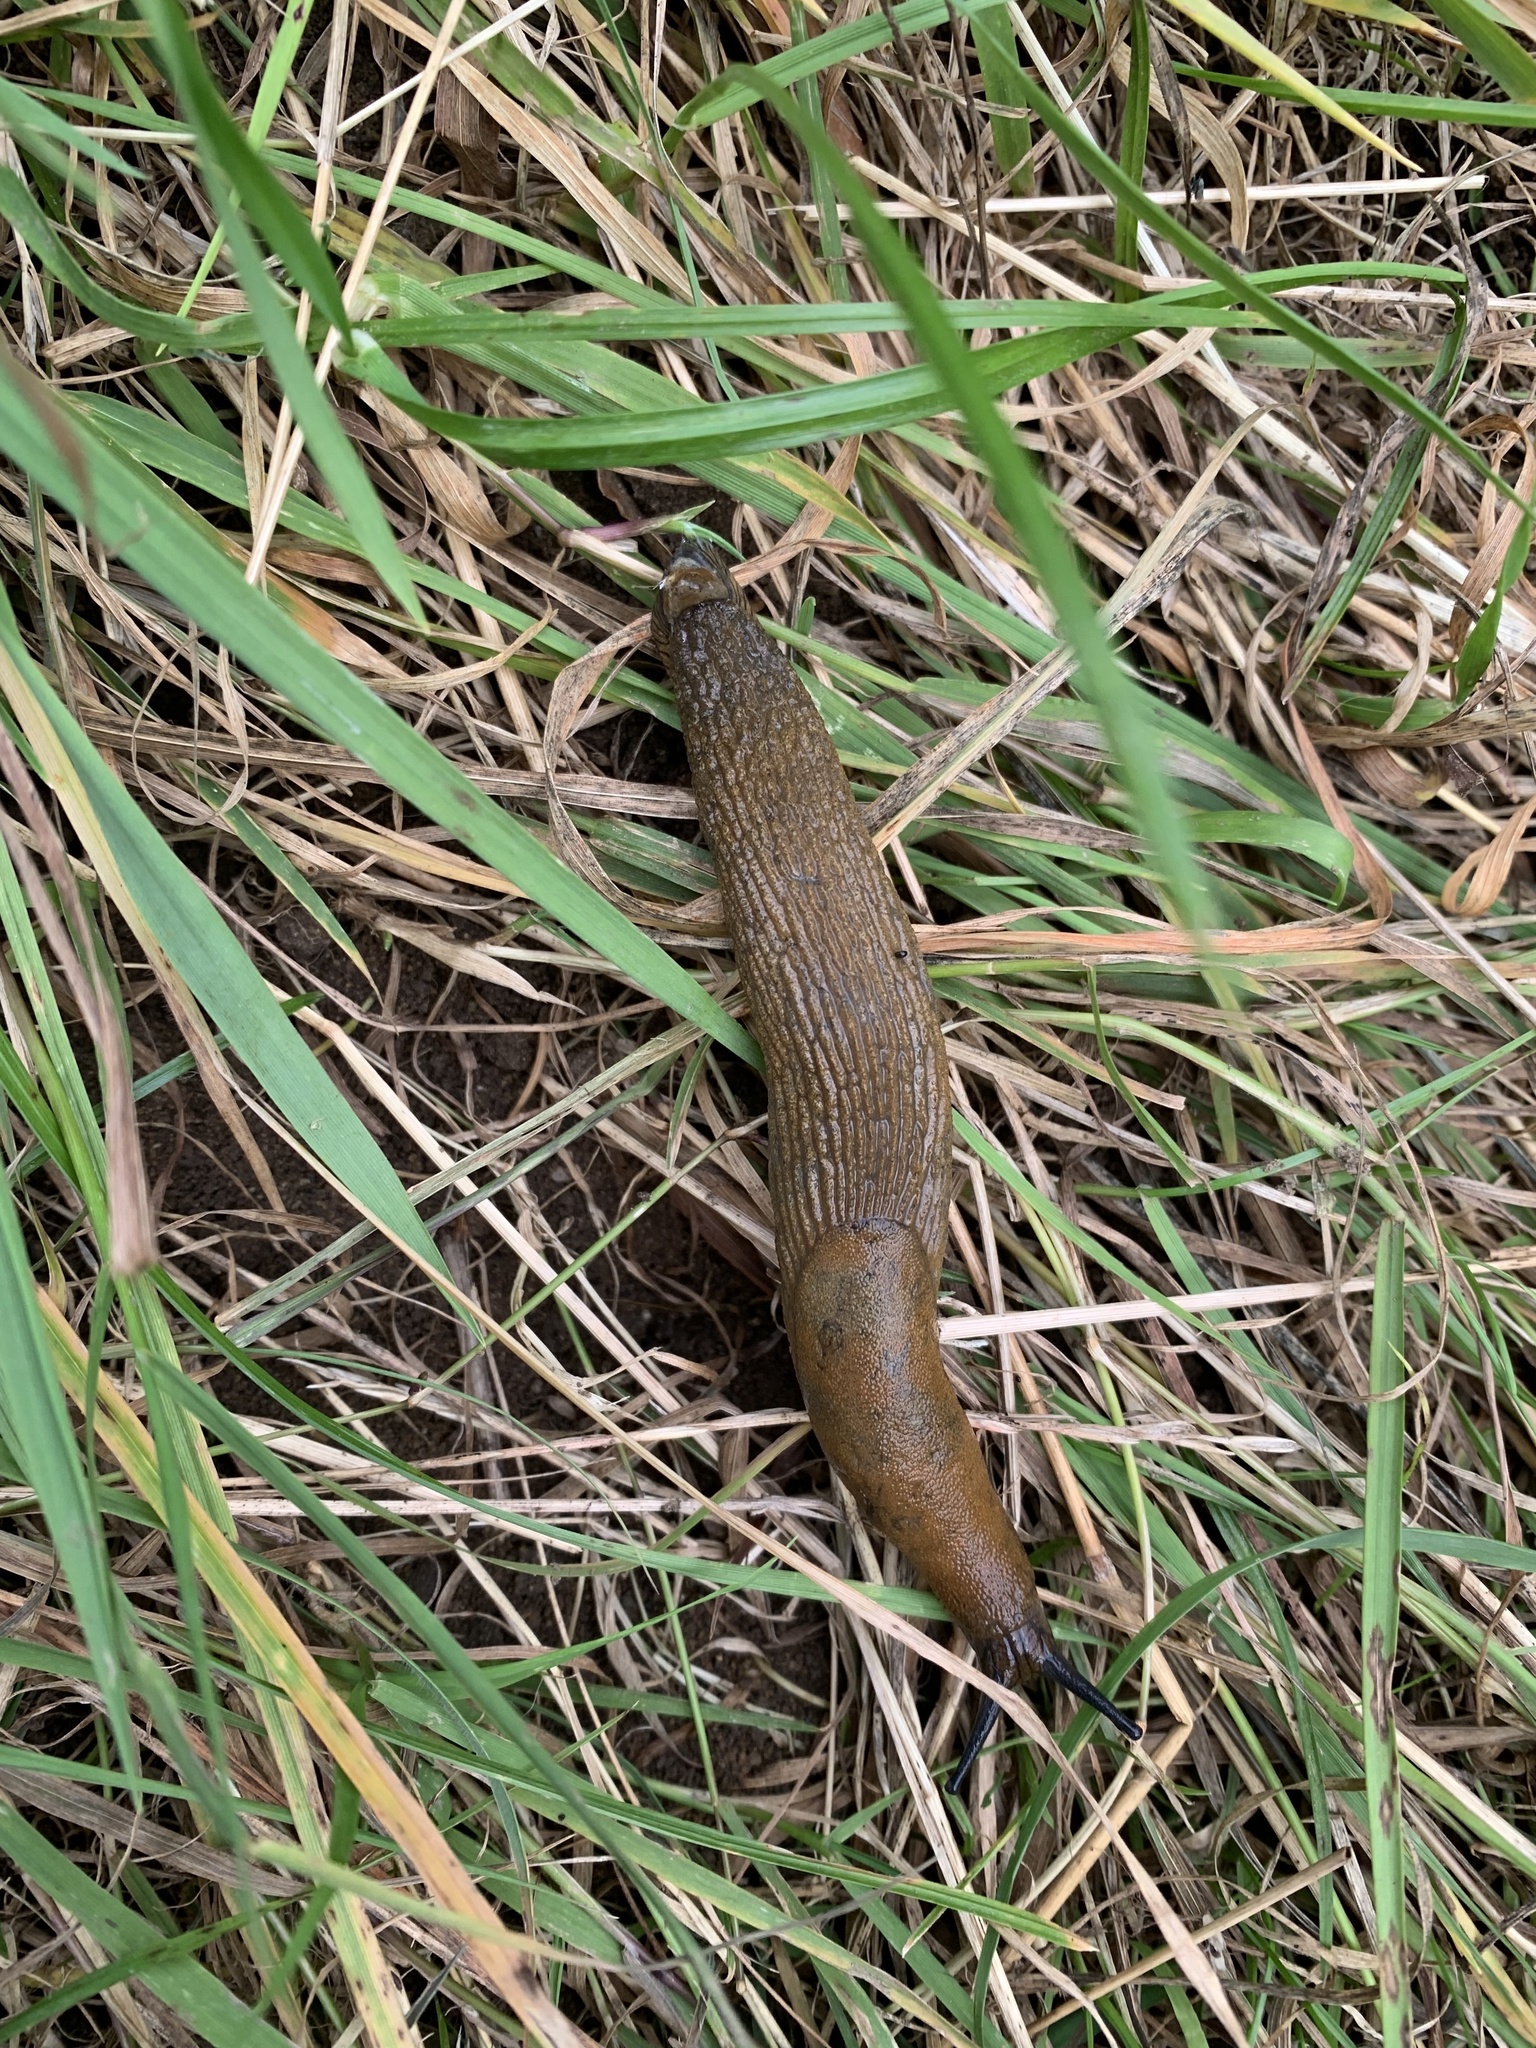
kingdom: Animalia
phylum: Mollusca
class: Gastropoda
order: Stylommatophora
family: Arionidae
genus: Arion
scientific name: Arion
